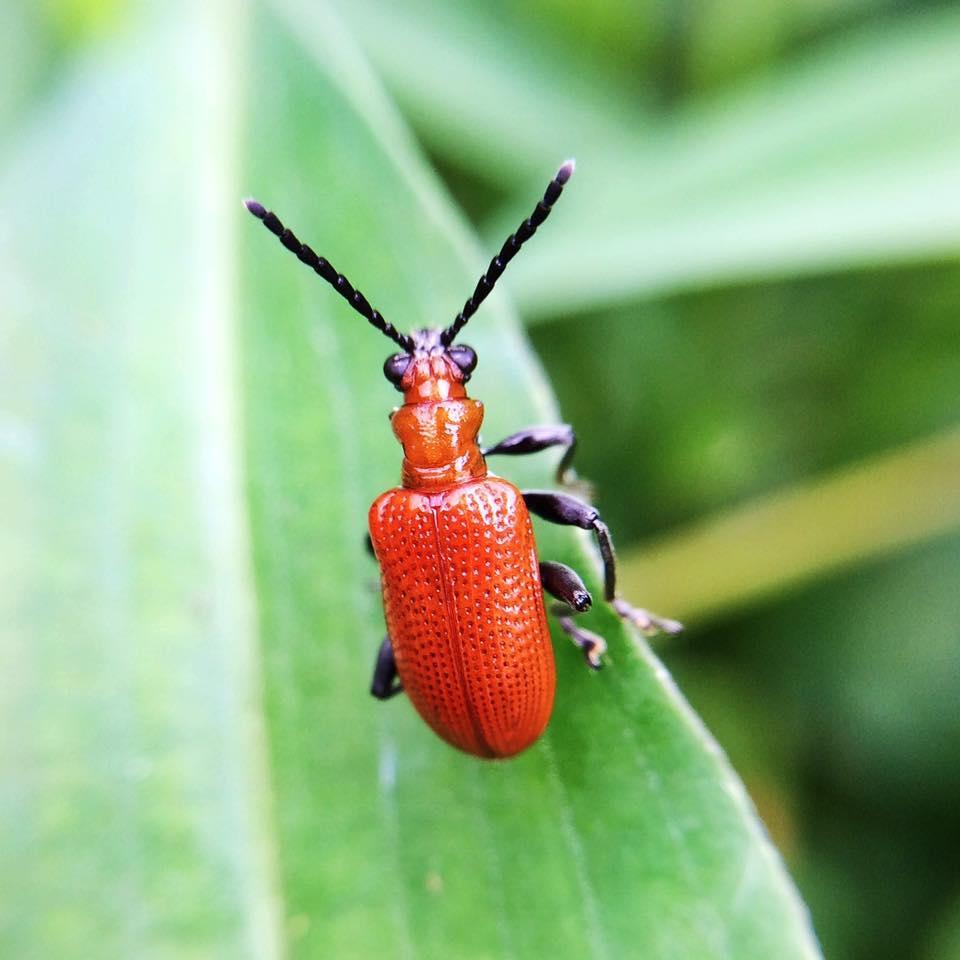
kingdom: Animalia
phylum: Arthropoda
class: Insecta
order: Coleoptera
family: Chrysomelidae
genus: Lema
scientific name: Lema
